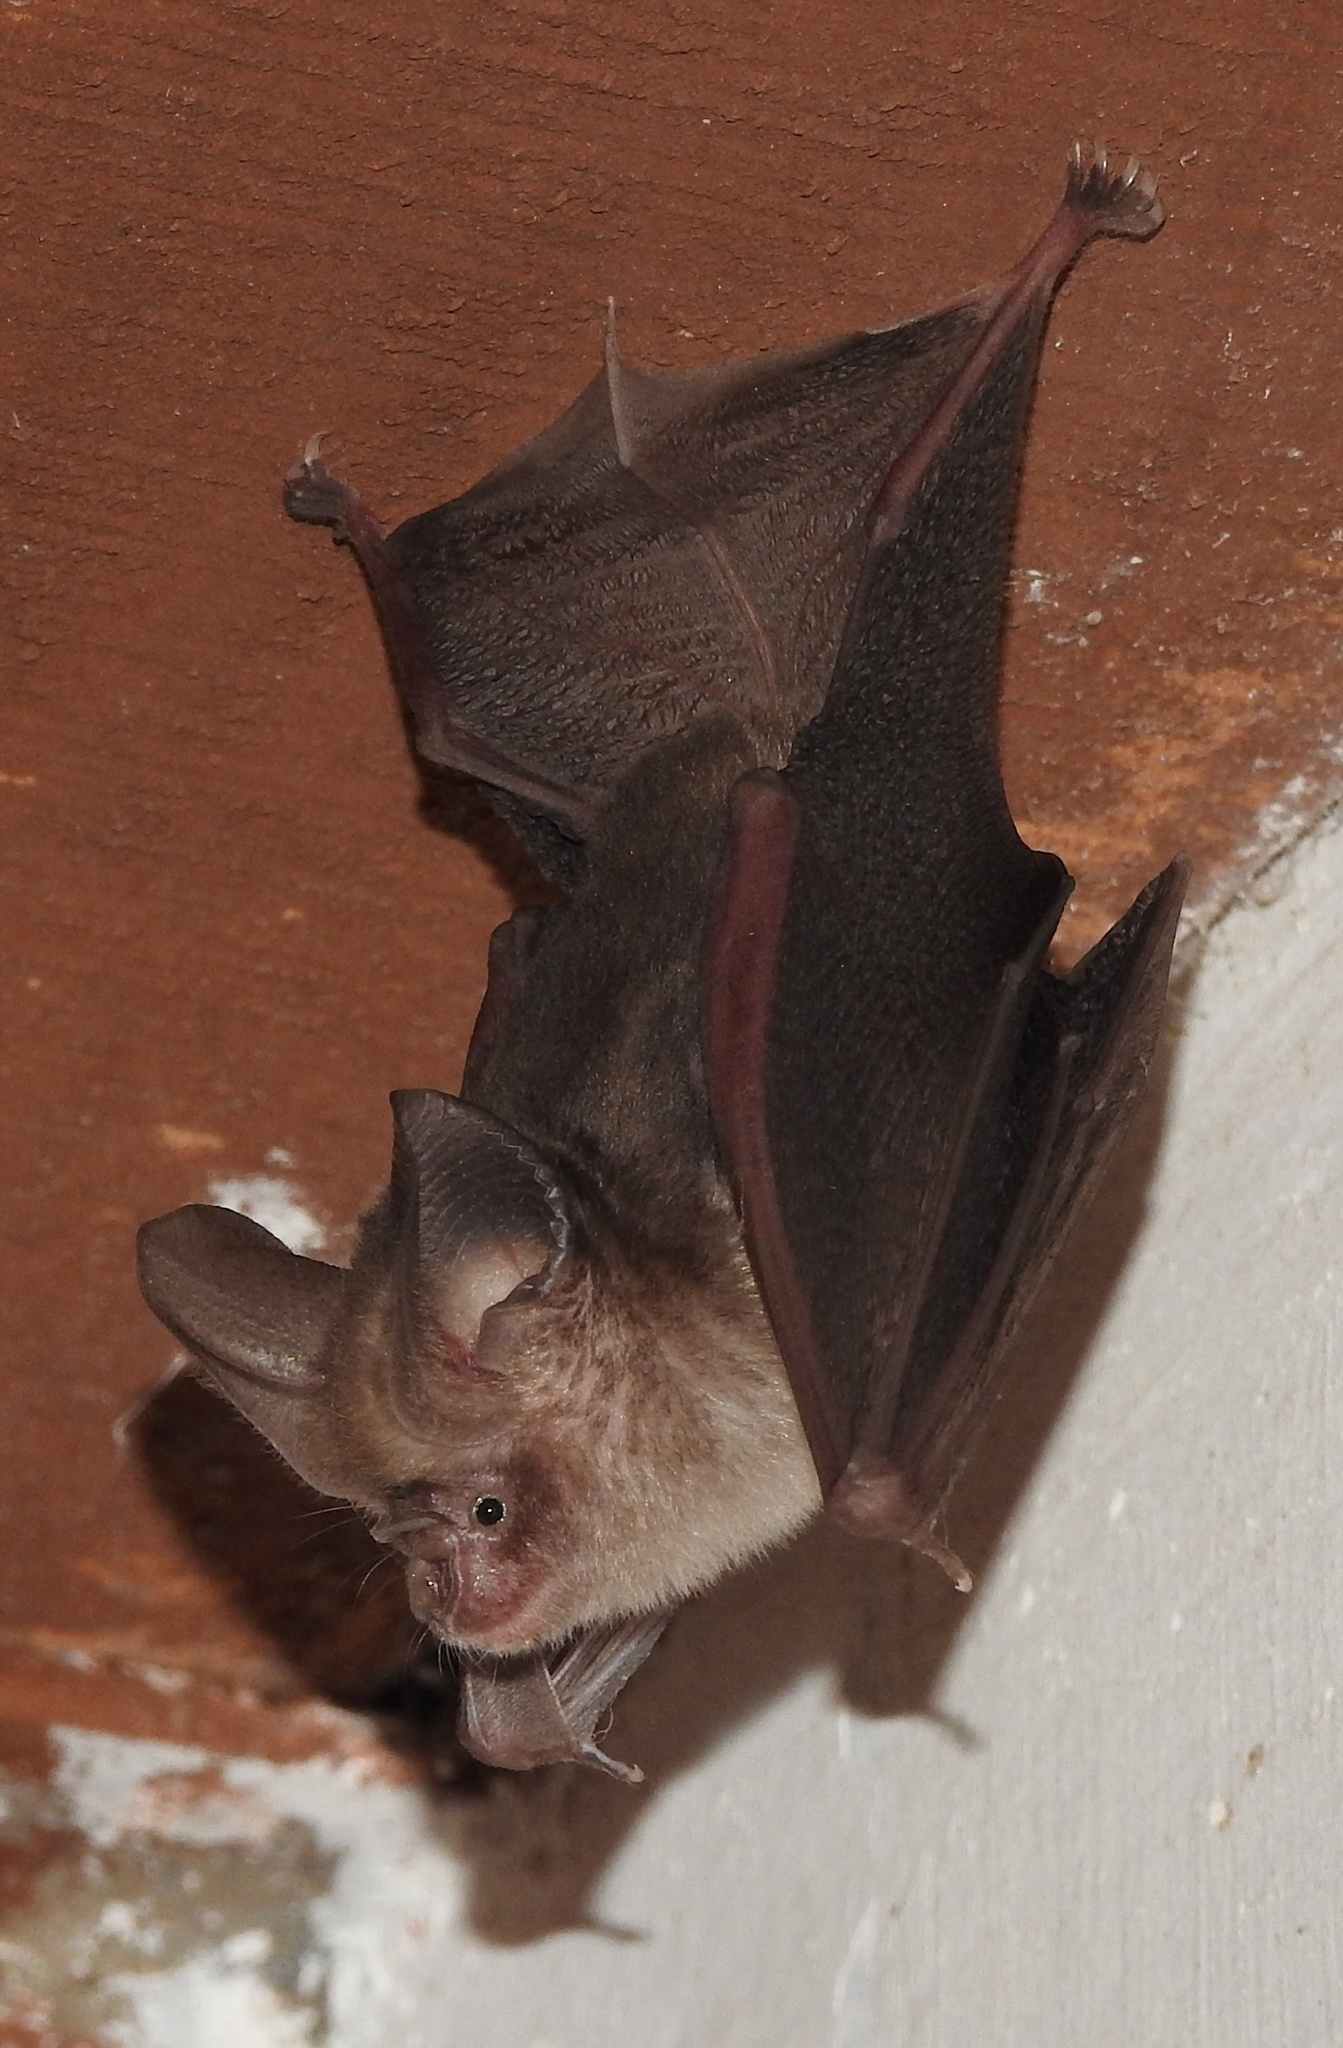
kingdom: Animalia
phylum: Chordata
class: Mammalia
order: Chiroptera
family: Hipposideridae
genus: Hipposideros
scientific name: Hipposideros fulvus
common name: Fulvus leaf-nosed bat
